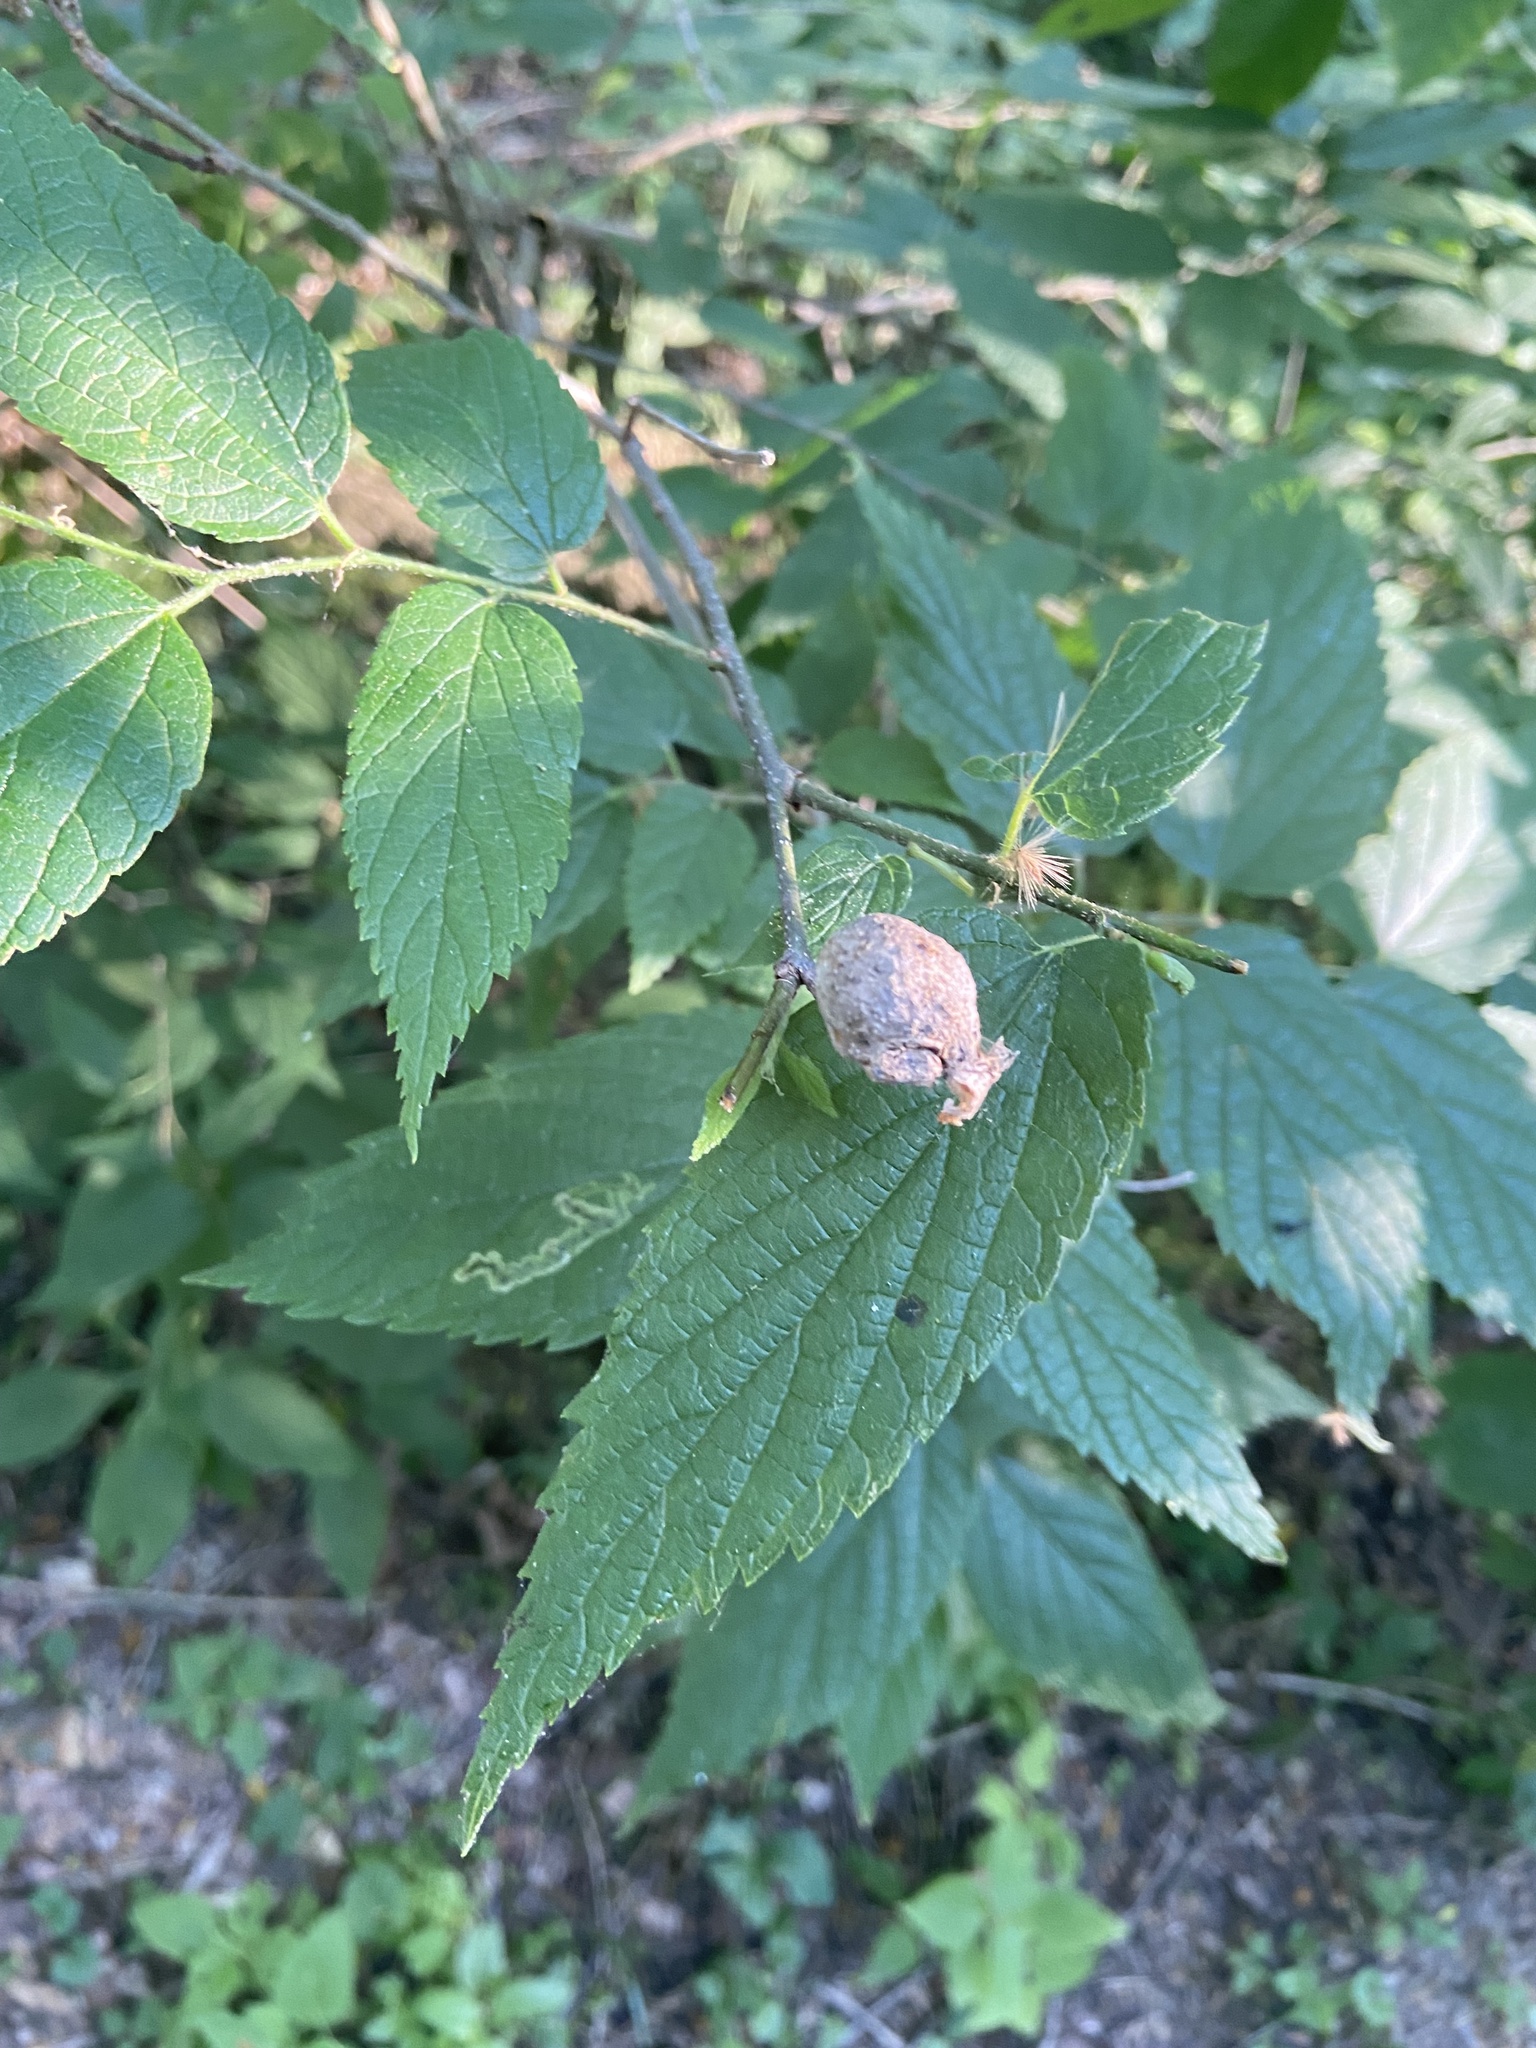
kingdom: Animalia
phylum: Arthropoda
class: Insecta
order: Hemiptera
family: Aphalaridae
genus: Pachypsylla
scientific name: Pachypsylla venusta
